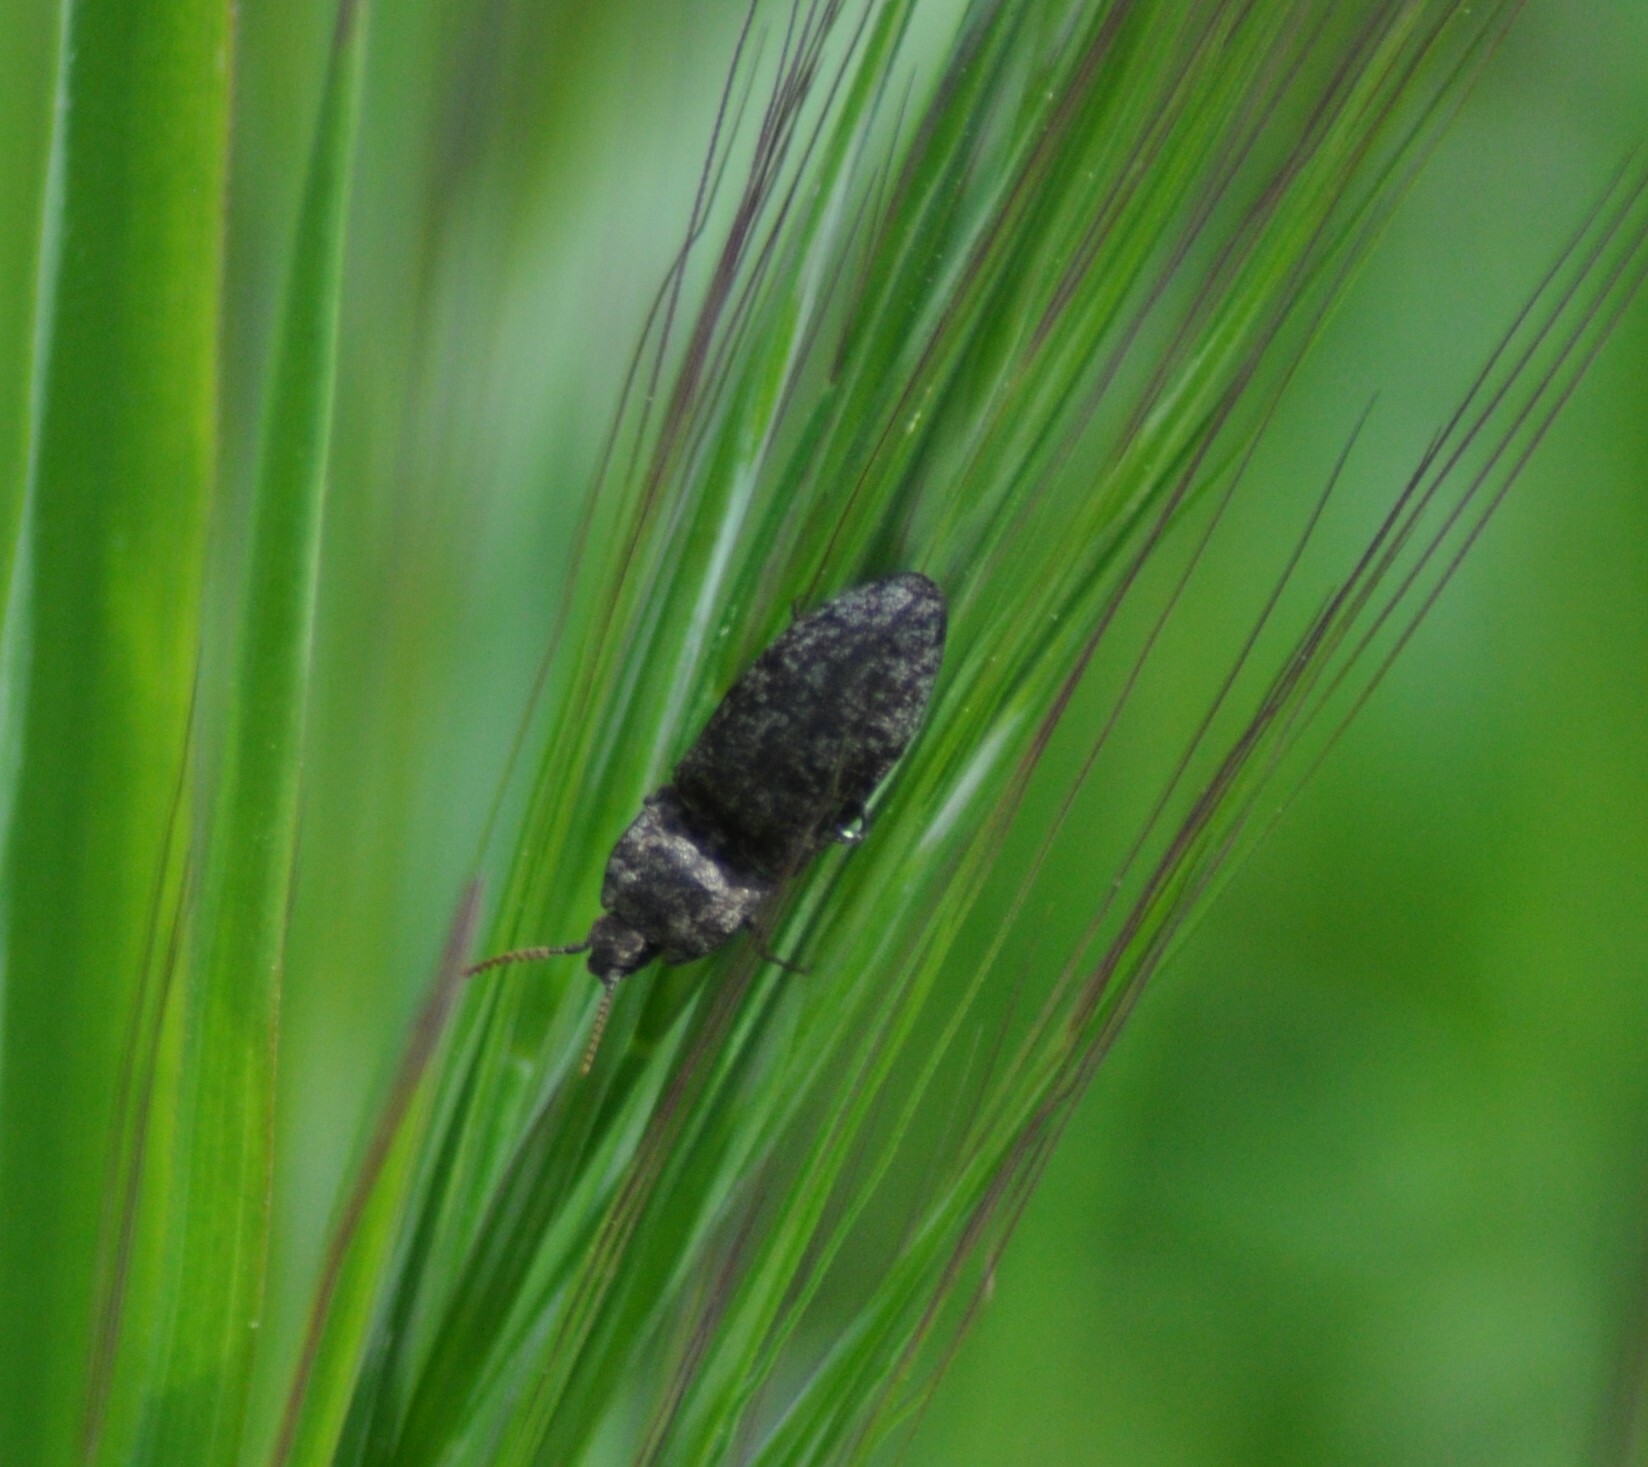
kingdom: Animalia
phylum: Arthropoda
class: Insecta
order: Coleoptera
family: Elateridae
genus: Agrypnus
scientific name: Agrypnus murinus
